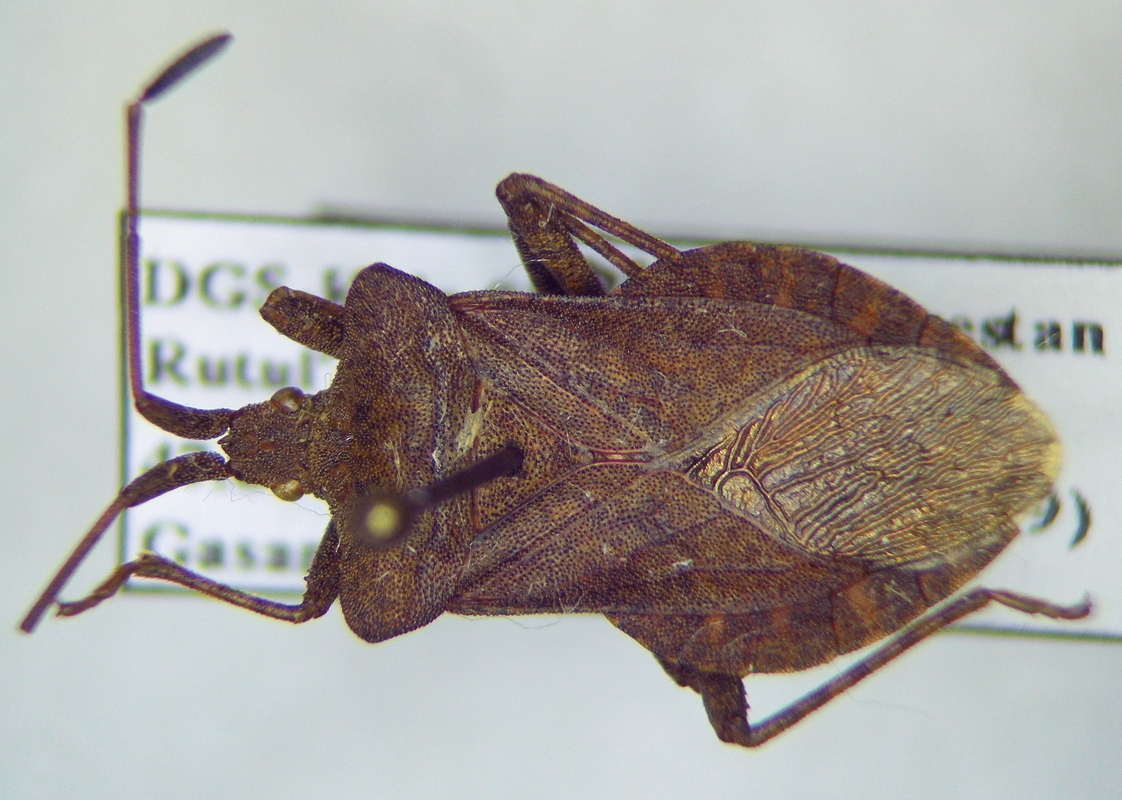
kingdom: Animalia
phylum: Arthropoda
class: Insecta
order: Hemiptera
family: Coreidae
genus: Coreus
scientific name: Coreus marginatus
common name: Dock bug
